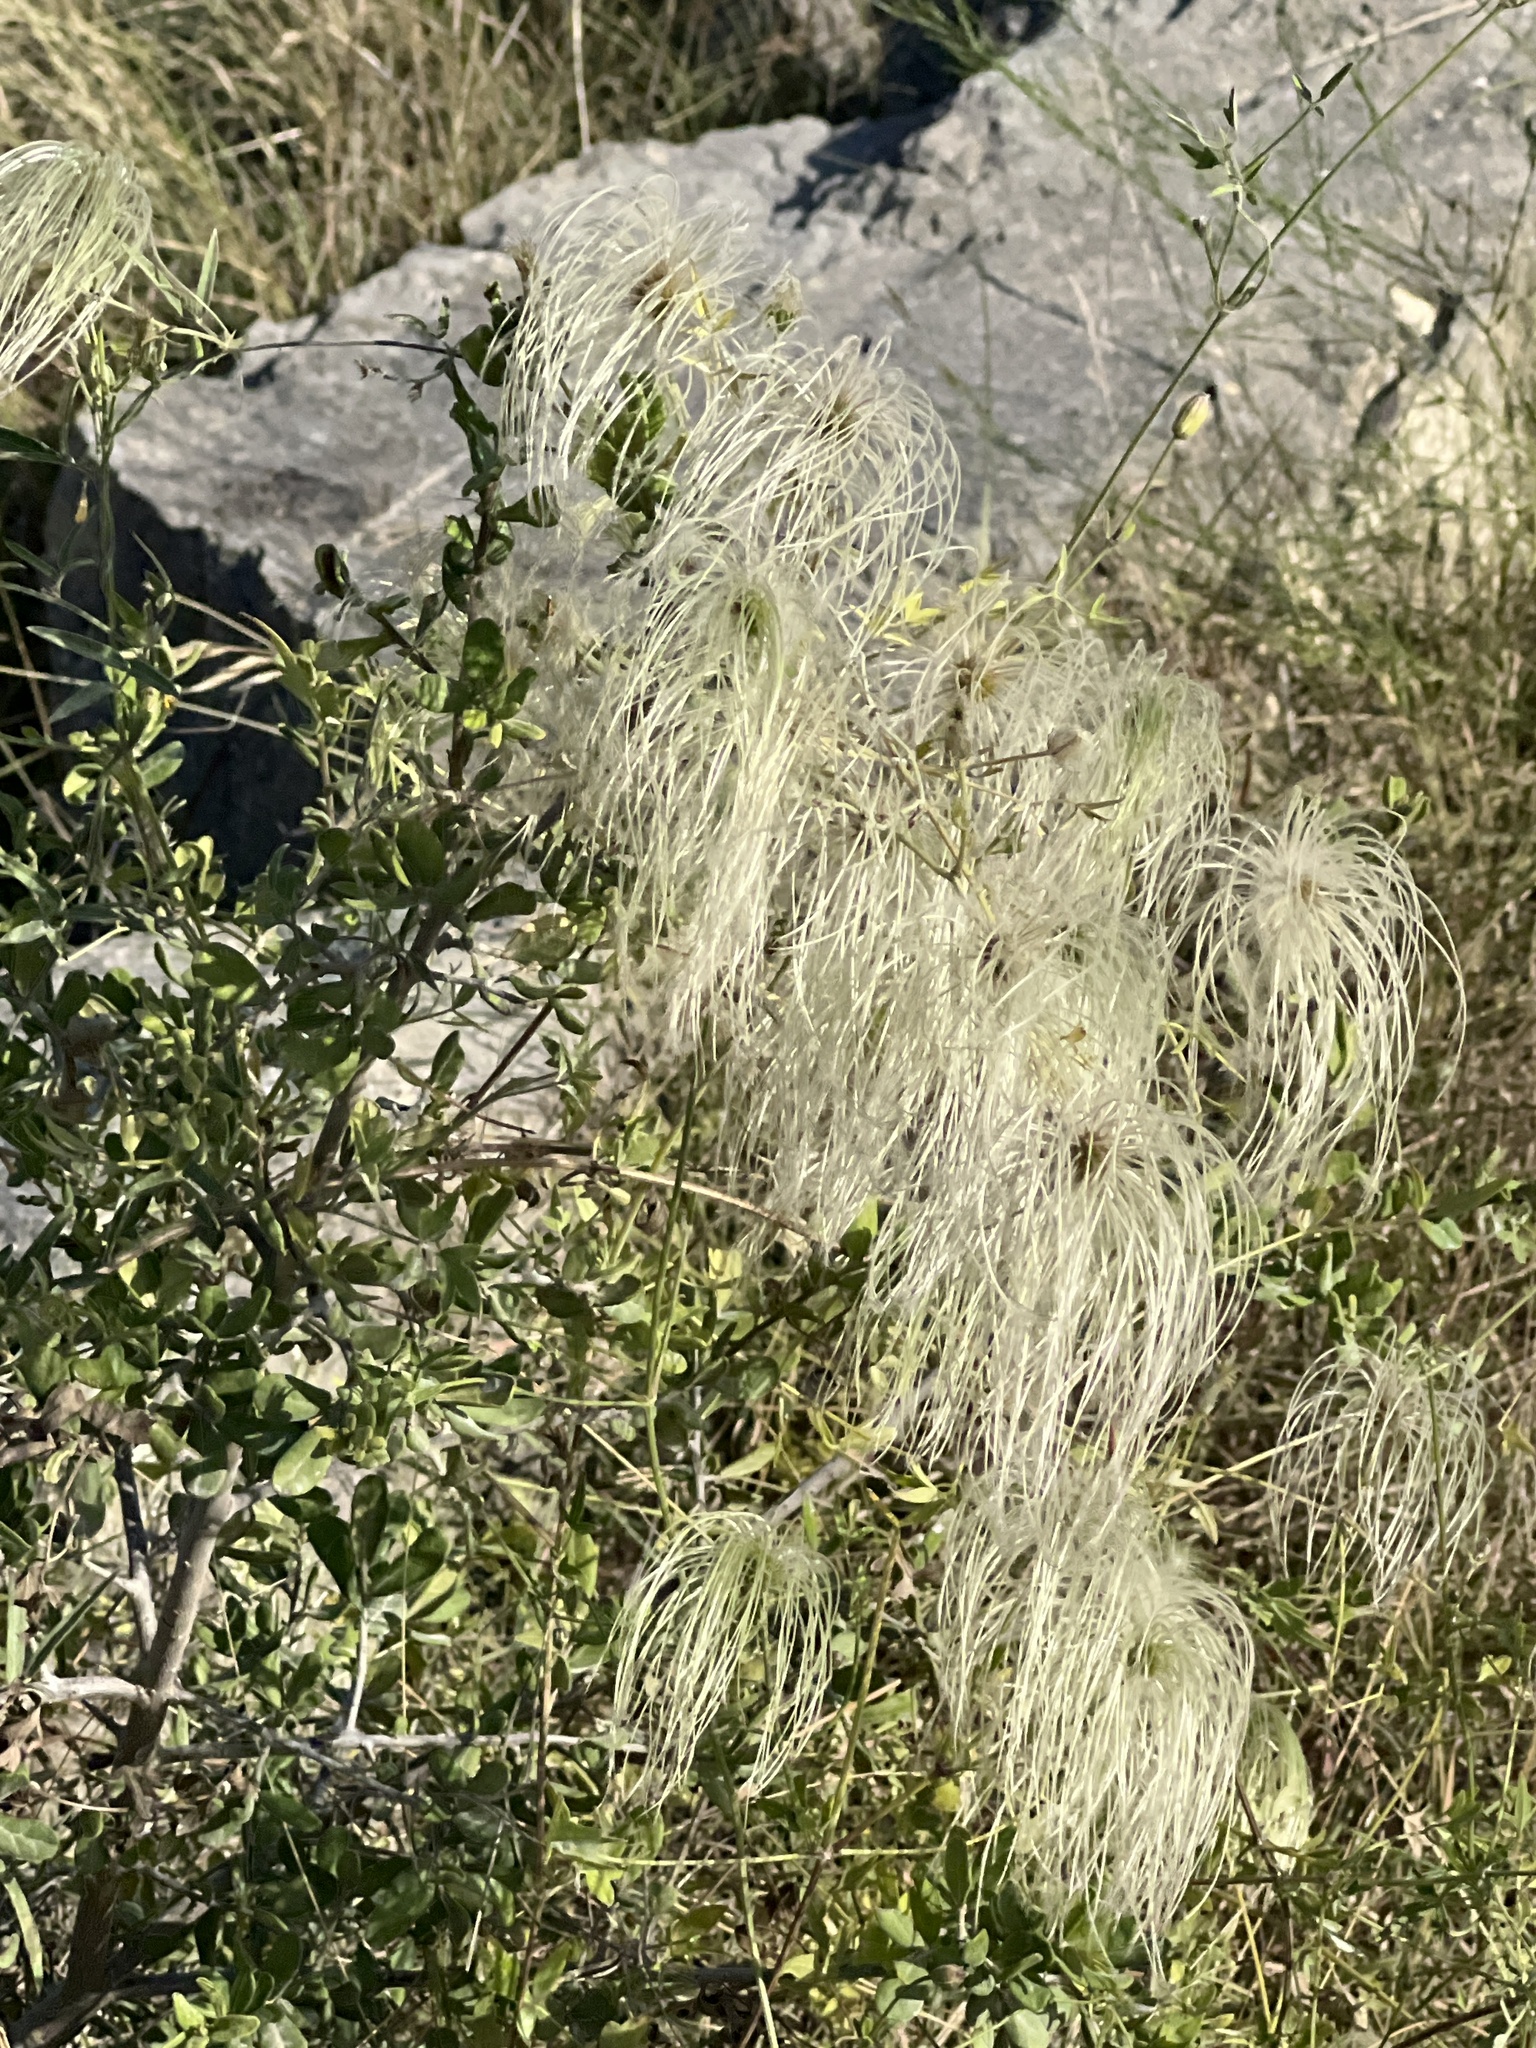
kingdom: Plantae
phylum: Tracheophyta
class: Magnoliopsida
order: Ranunculales
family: Ranunculaceae
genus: Clematis
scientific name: Clematis drummondii
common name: Texas virgin's bower
